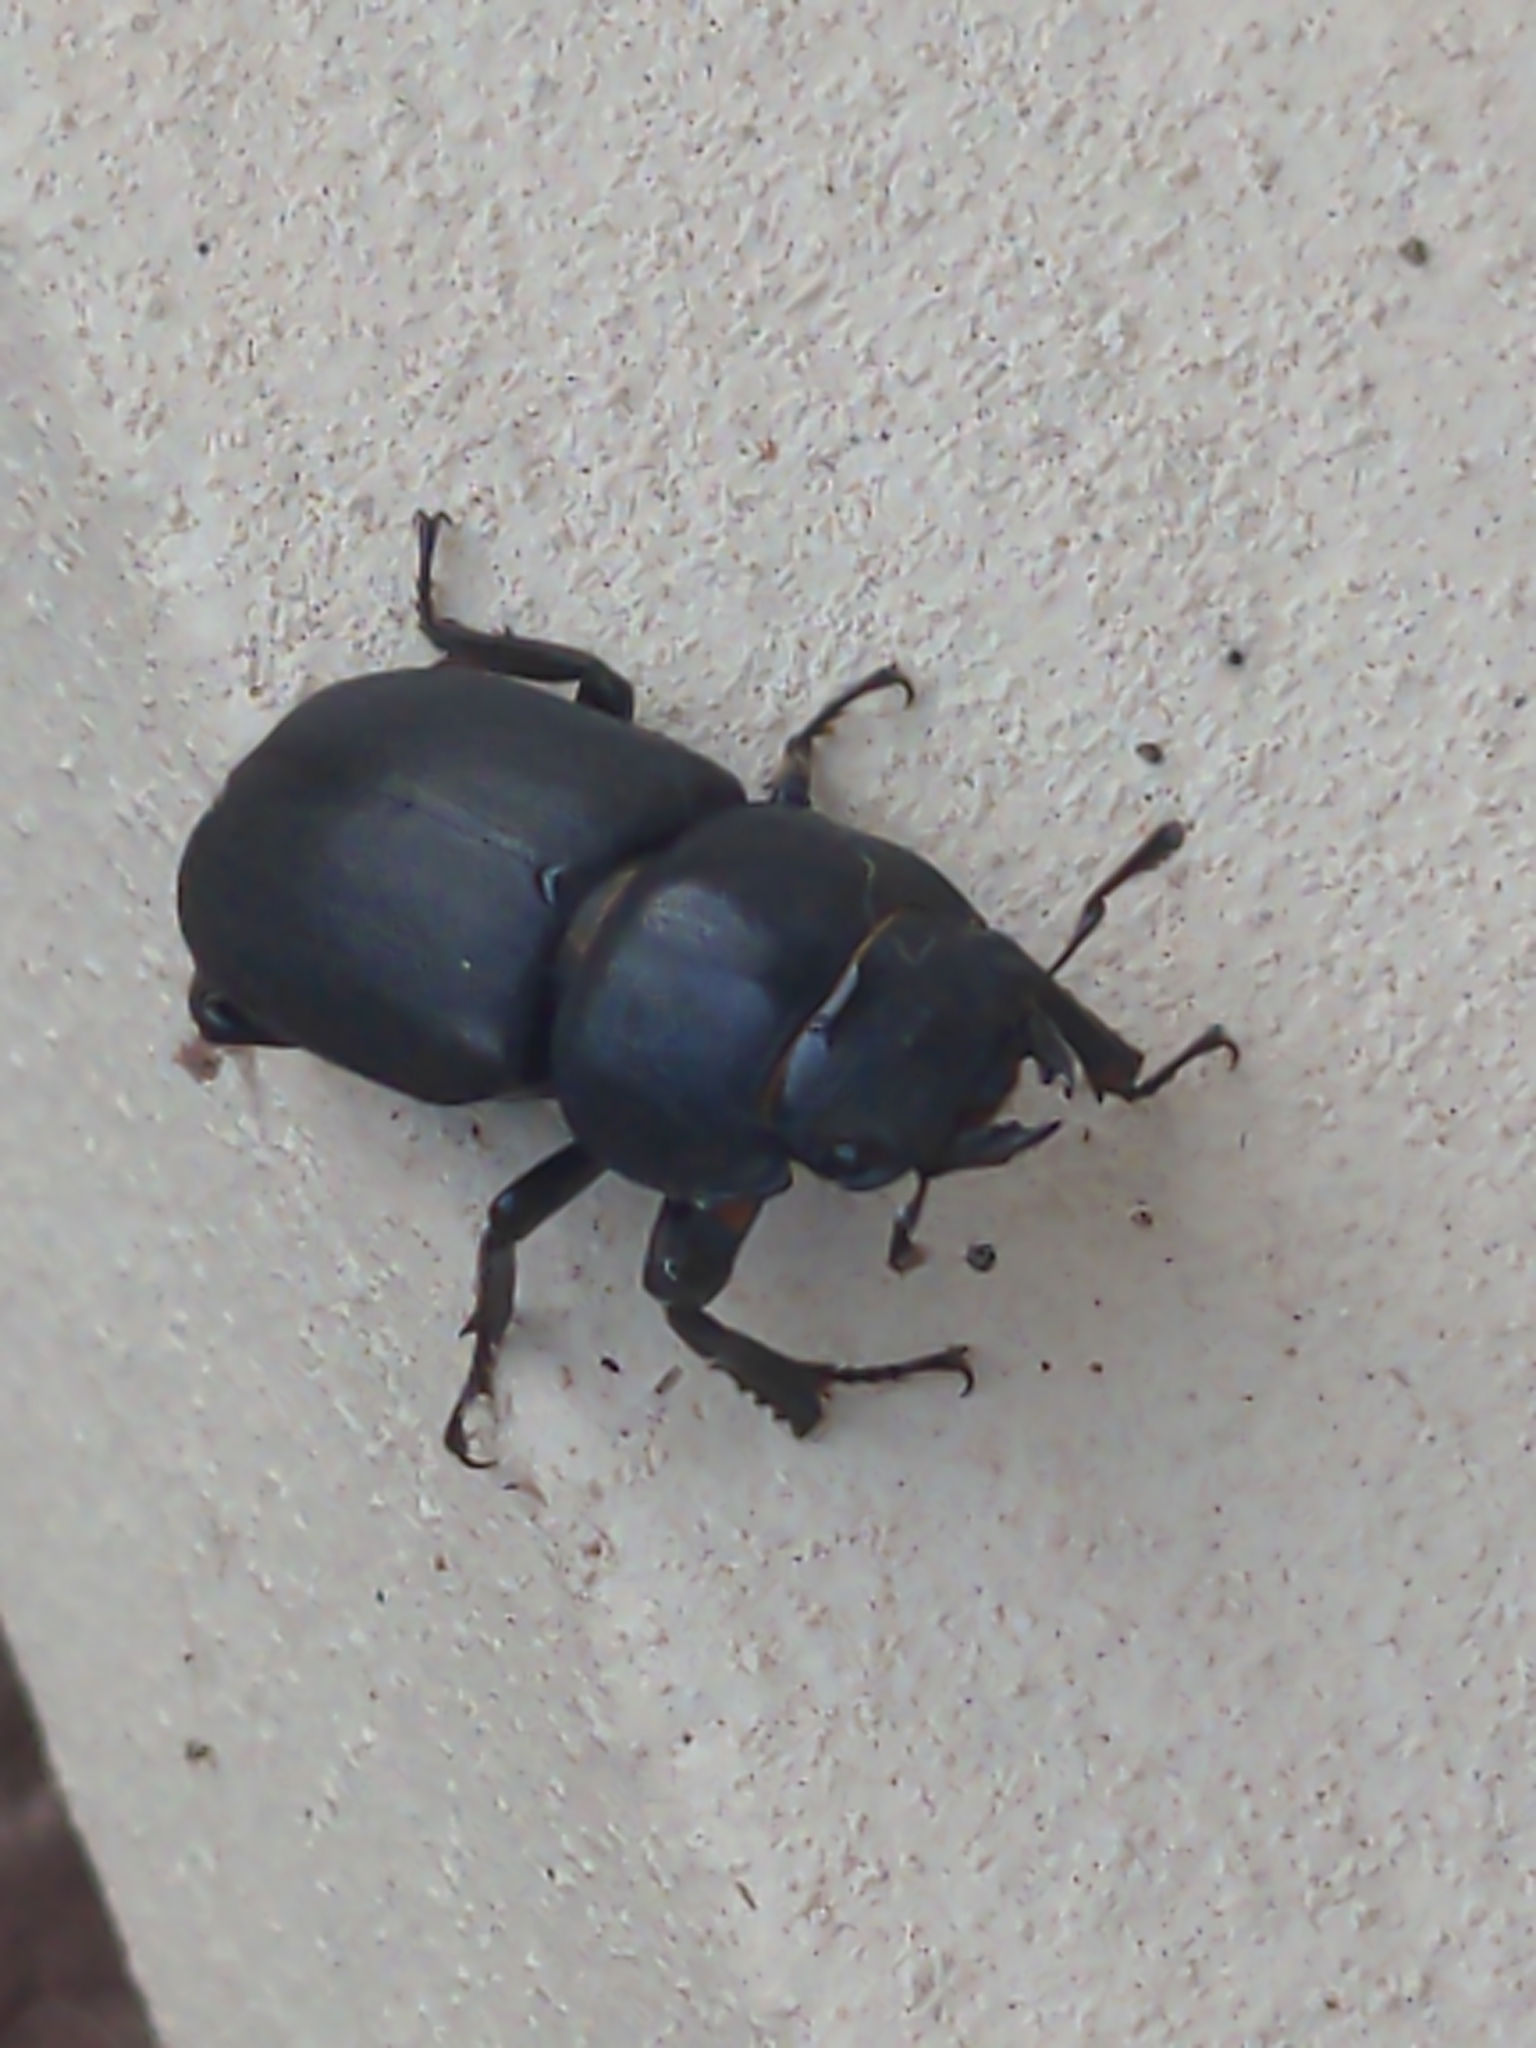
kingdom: Animalia
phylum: Arthropoda
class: Insecta
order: Coleoptera
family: Lucanidae
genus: Dorcus
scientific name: Dorcus parallelipipedus
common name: Lesser stag beetle
